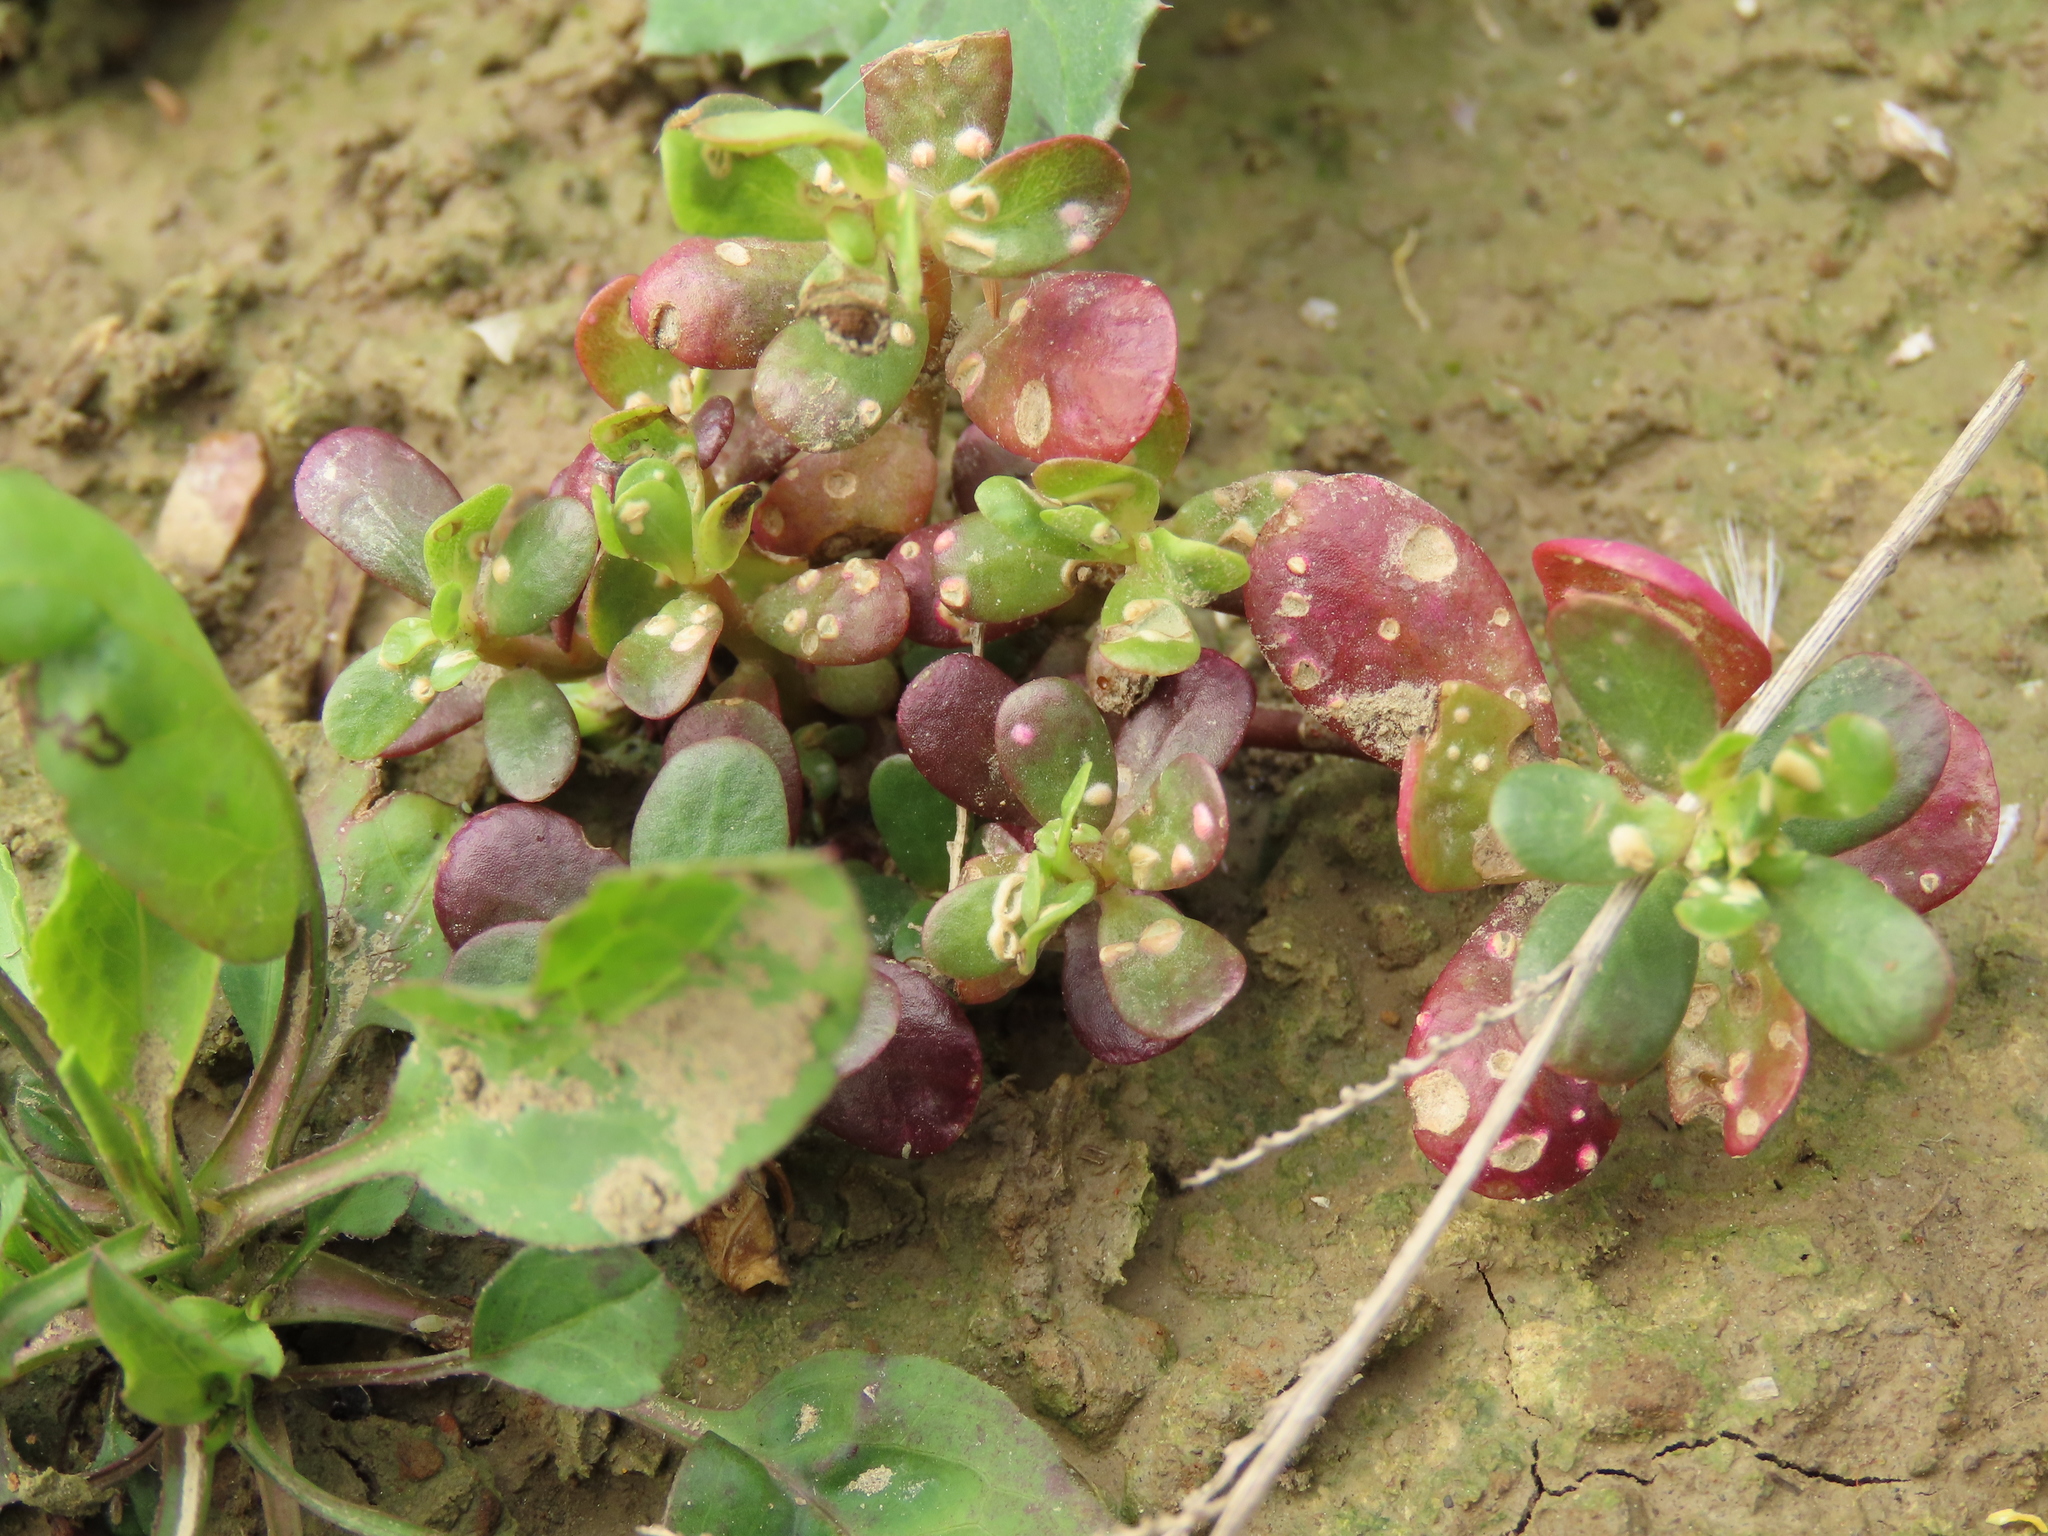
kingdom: Plantae
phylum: Tracheophyta
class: Magnoliopsida
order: Caryophyllales
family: Portulacaceae
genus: Portulaca
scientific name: Portulaca oleracea
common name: Common purslane
